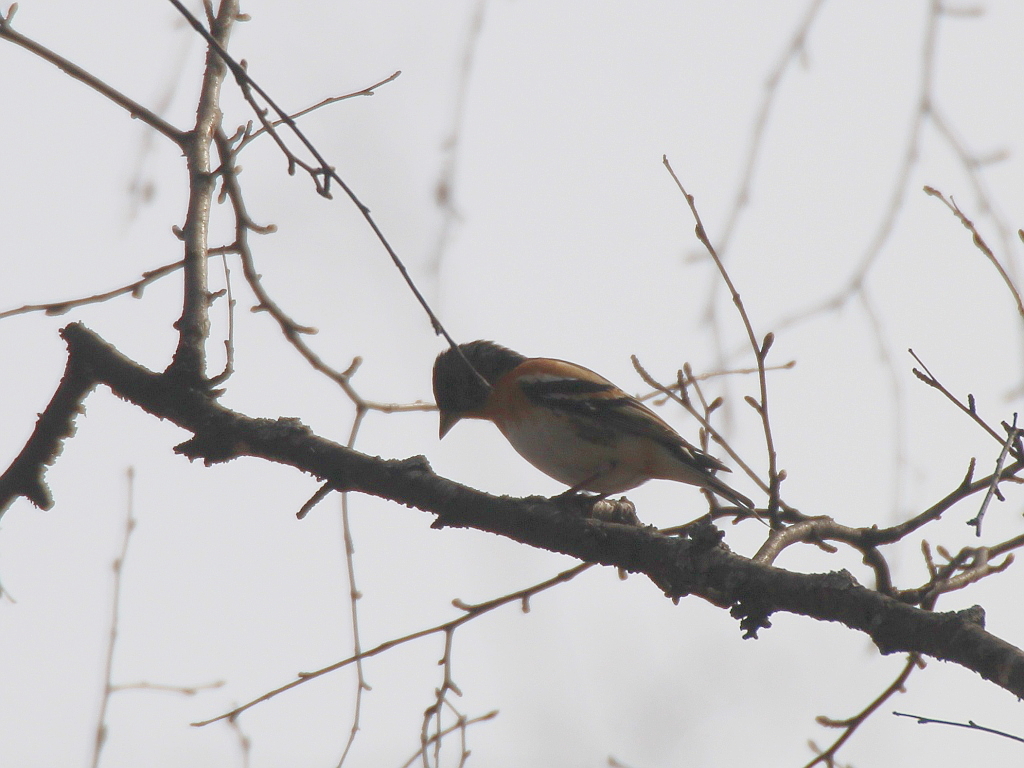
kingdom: Animalia
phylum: Chordata
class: Aves
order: Passeriformes
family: Fringillidae
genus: Fringilla
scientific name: Fringilla montifringilla
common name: Brambling
